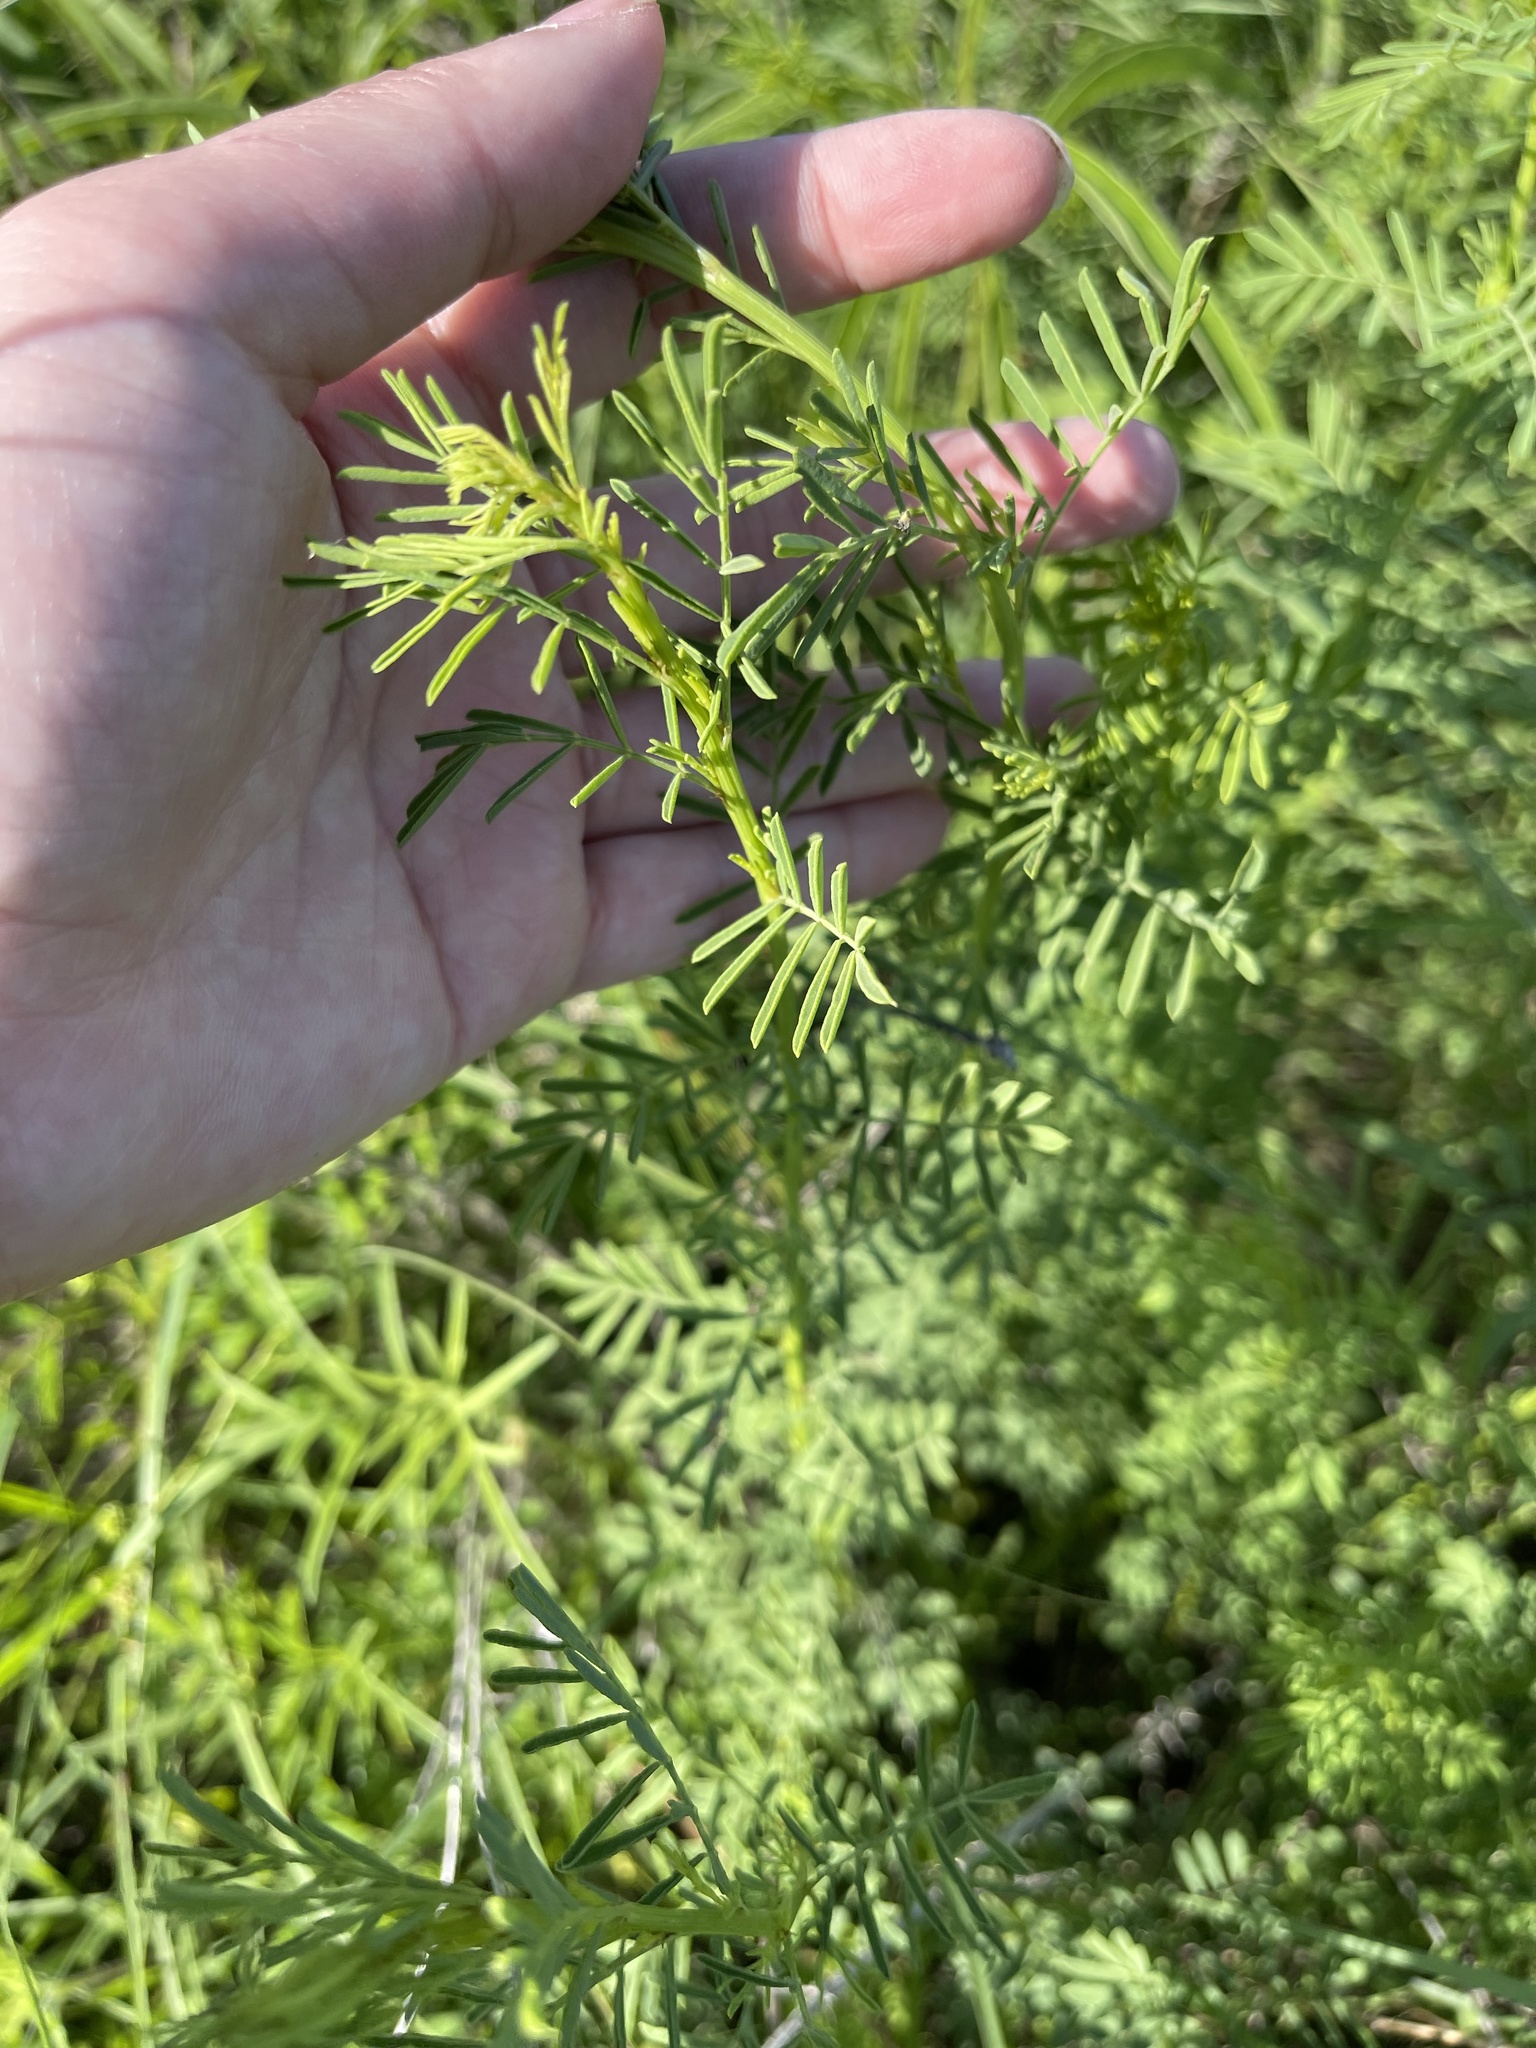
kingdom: Plantae
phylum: Tracheophyta
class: Magnoliopsida
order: Fabales
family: Fabaceae
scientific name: Fabaceae
